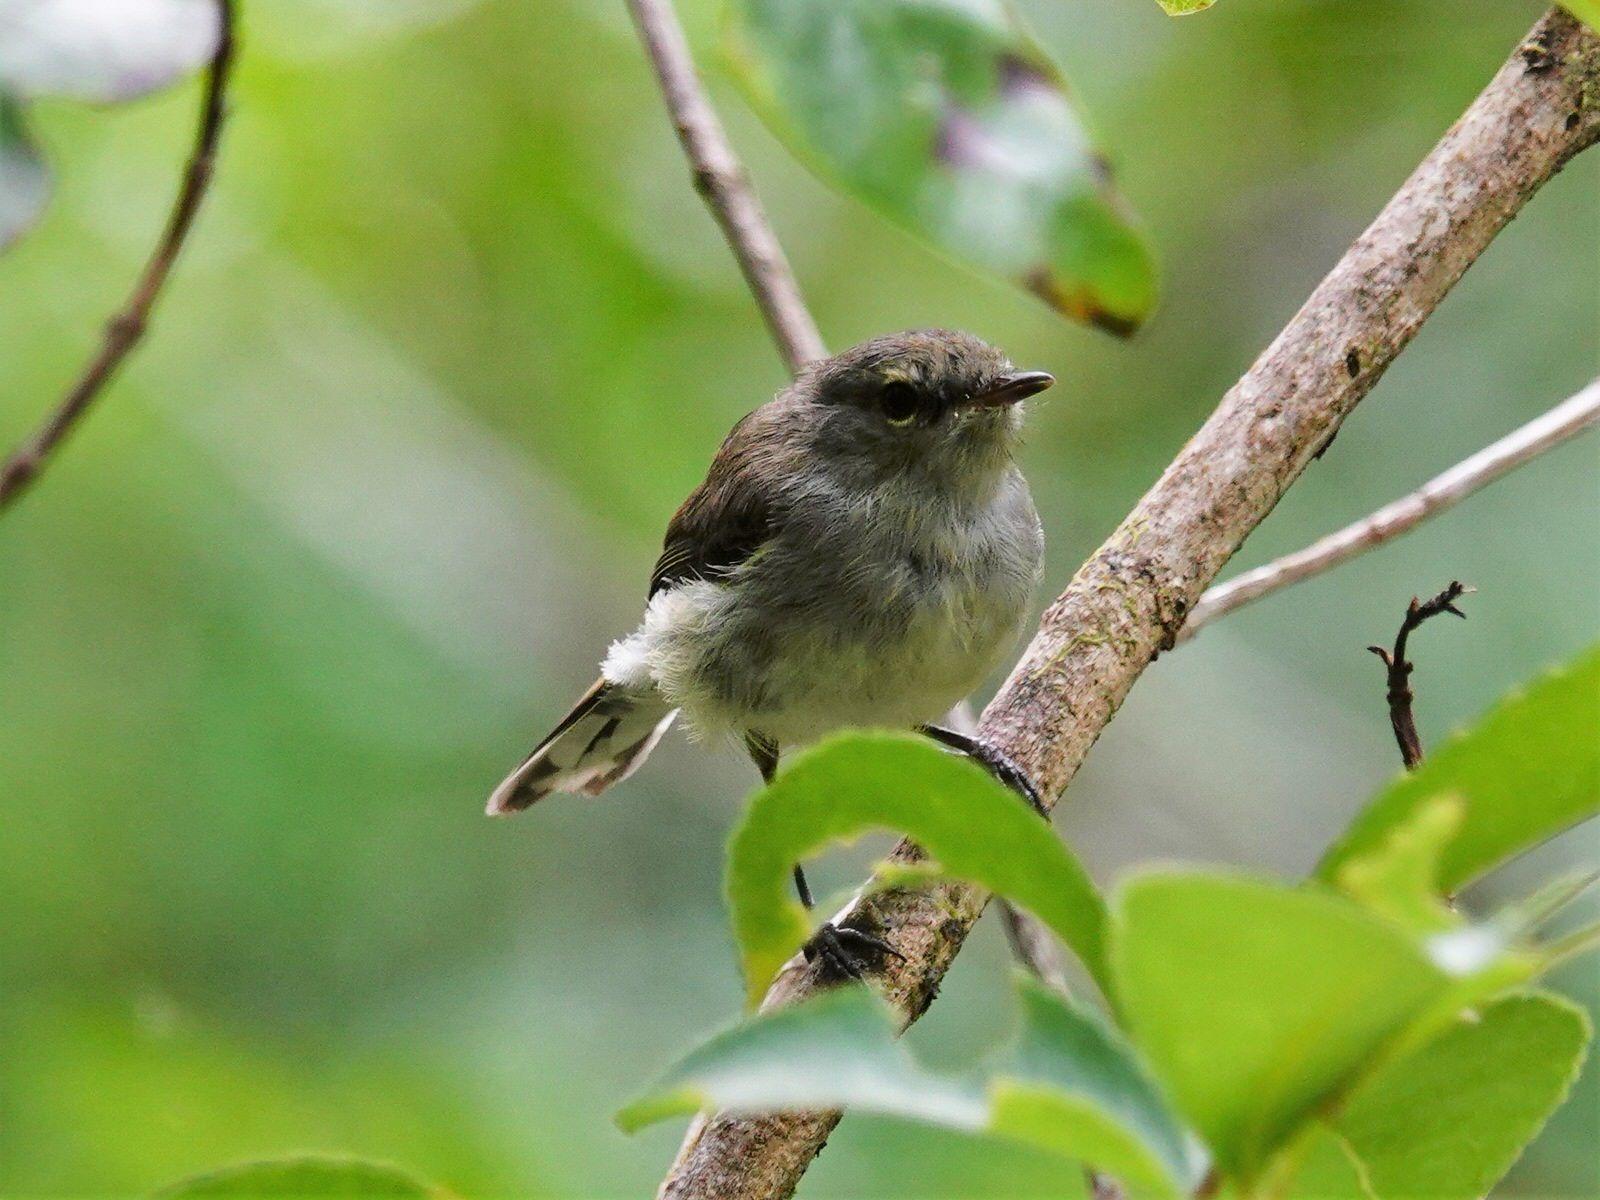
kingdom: Animalia
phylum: Chordata
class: Aves
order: Passeriformes
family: Acanthizidae
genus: Gerygone
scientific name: Gerygone igata
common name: Grey gerygone
